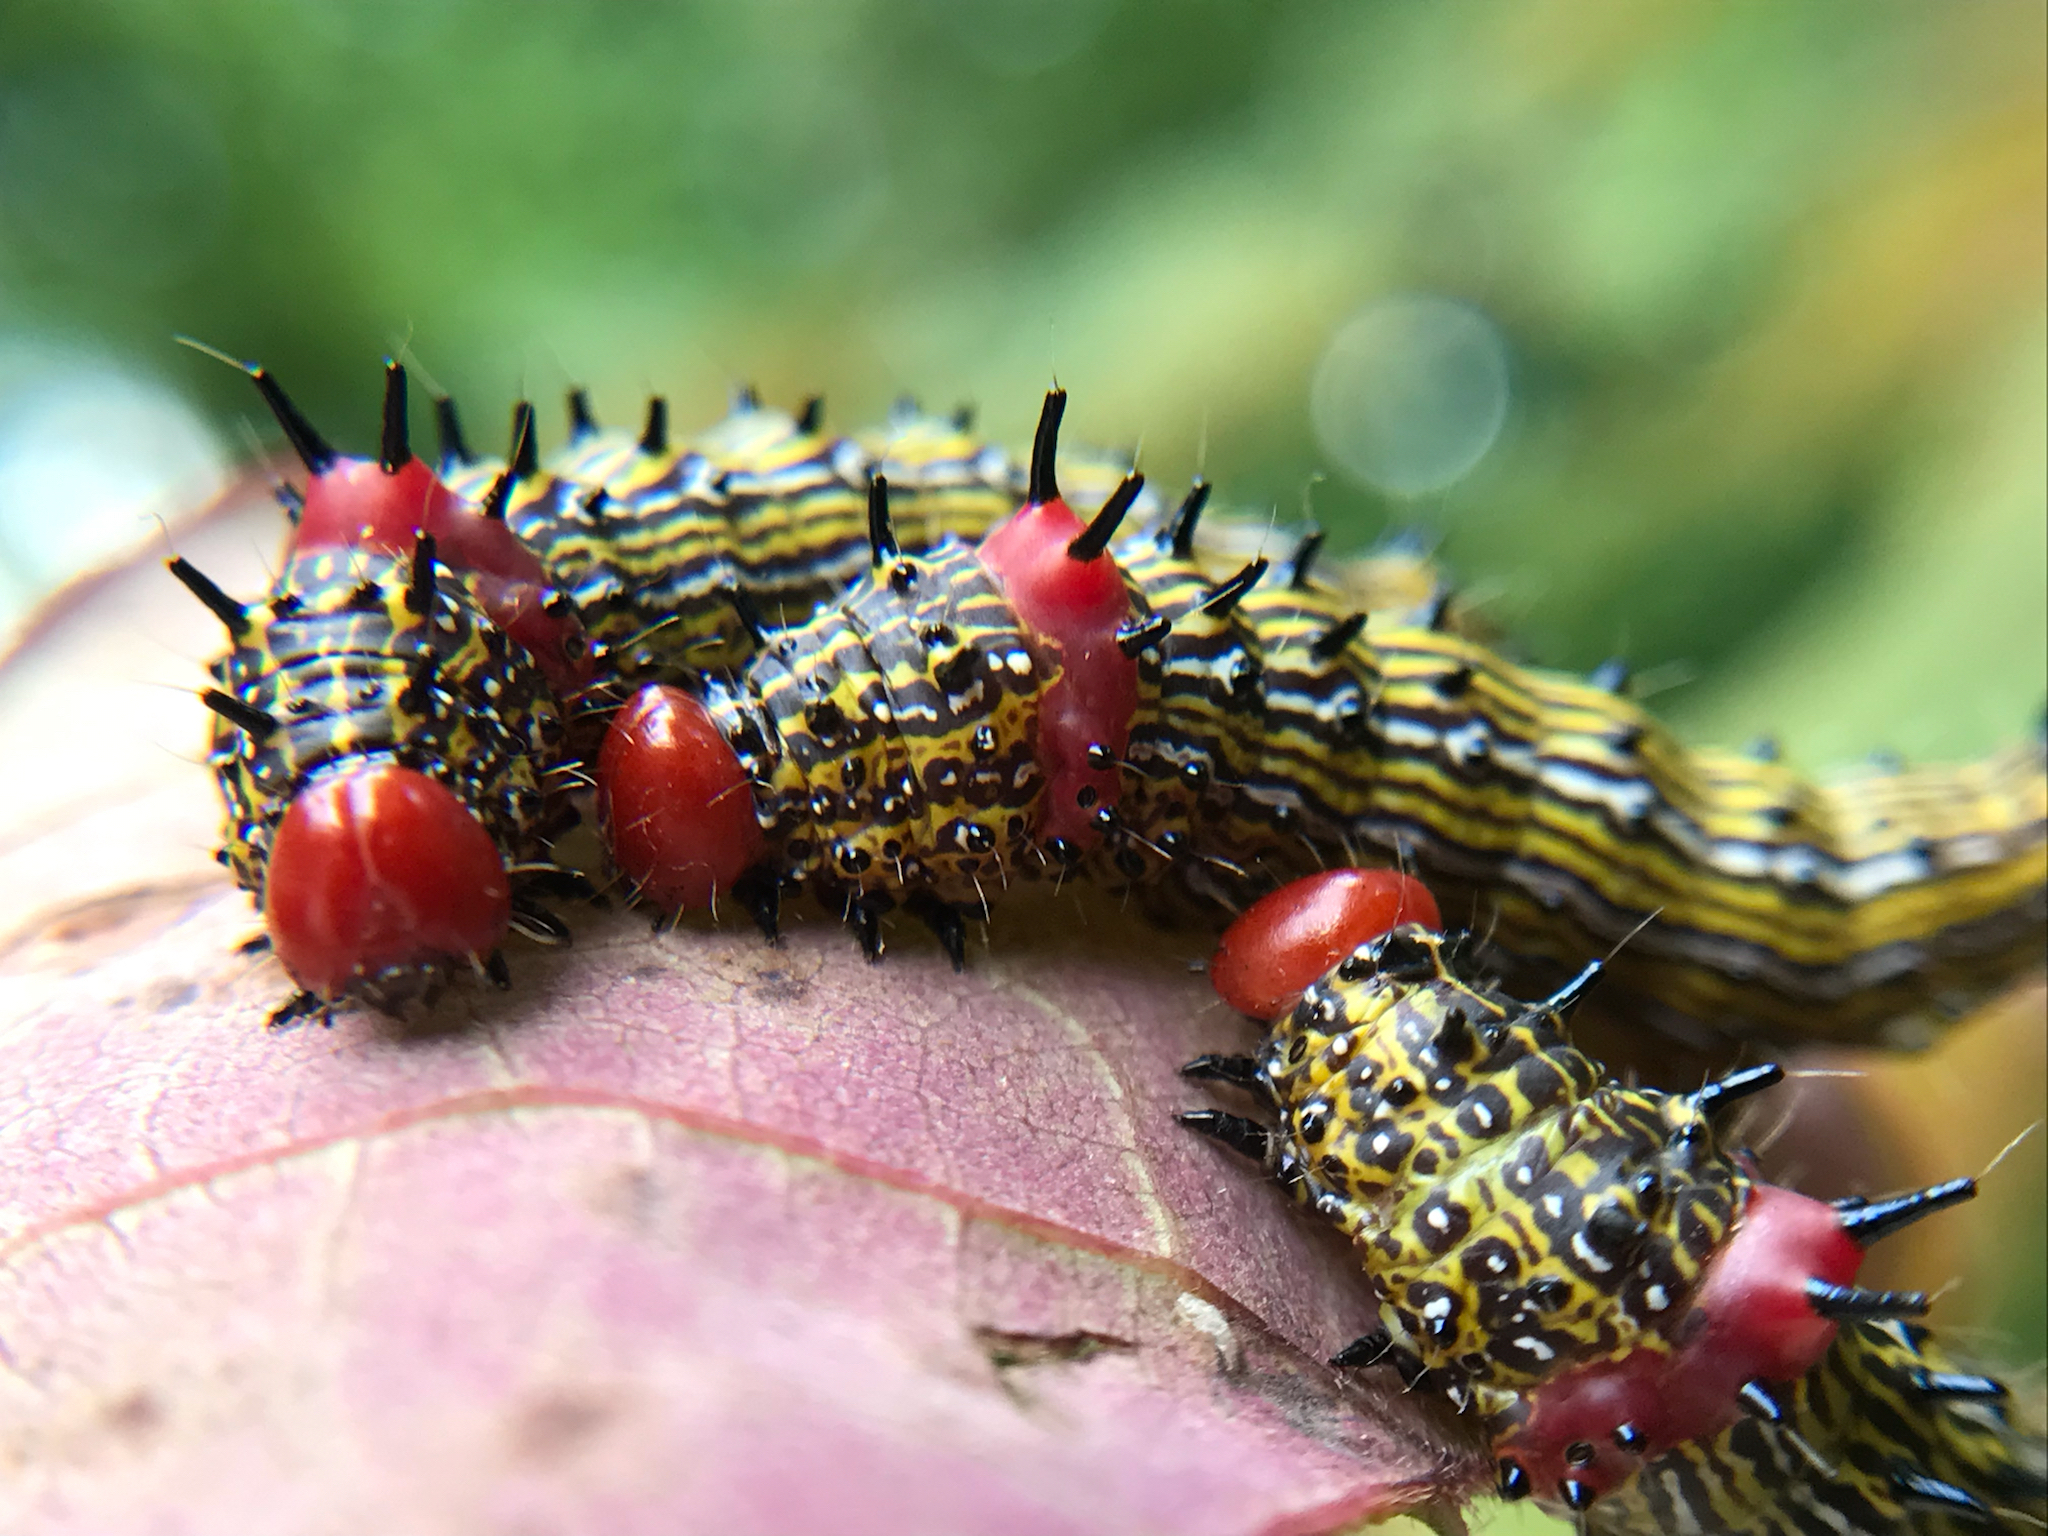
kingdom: Animalia
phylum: Arthropoda
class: Insecta
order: Lepidoptera
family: Notodontidae
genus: Schizura
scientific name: Schizura
